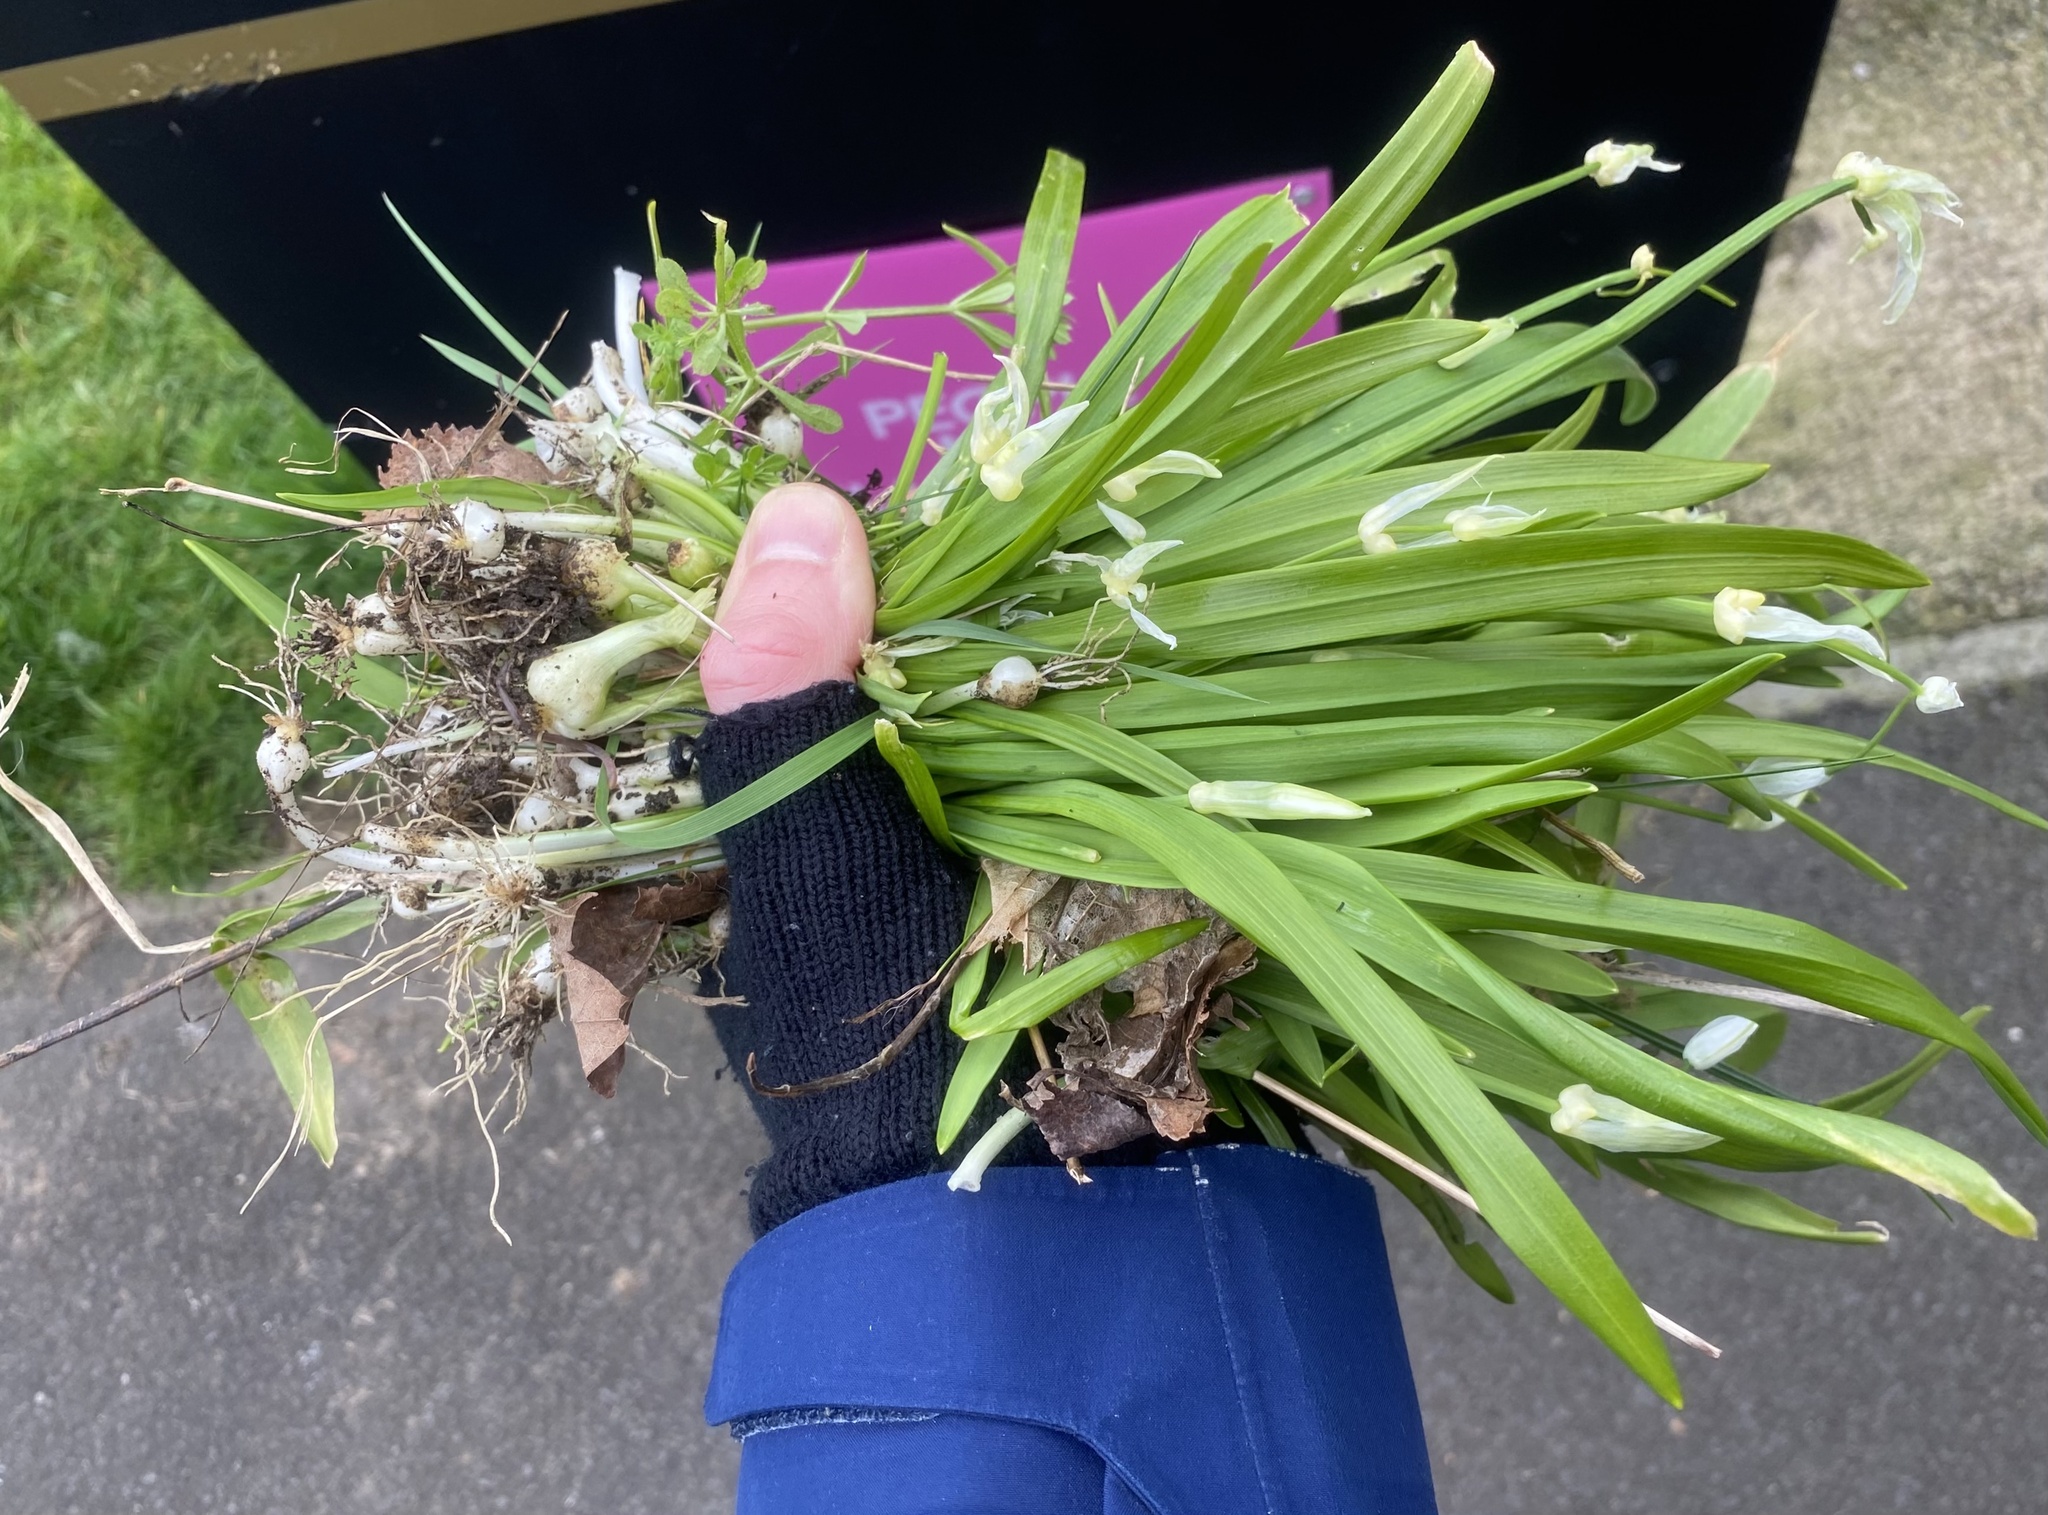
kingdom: Plantae
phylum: Tracheophyta
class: Liliopsida
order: Asparagales
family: Amaryllidaceae
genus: Allium
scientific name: Allium paradoxum
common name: Few-flowered garlic
